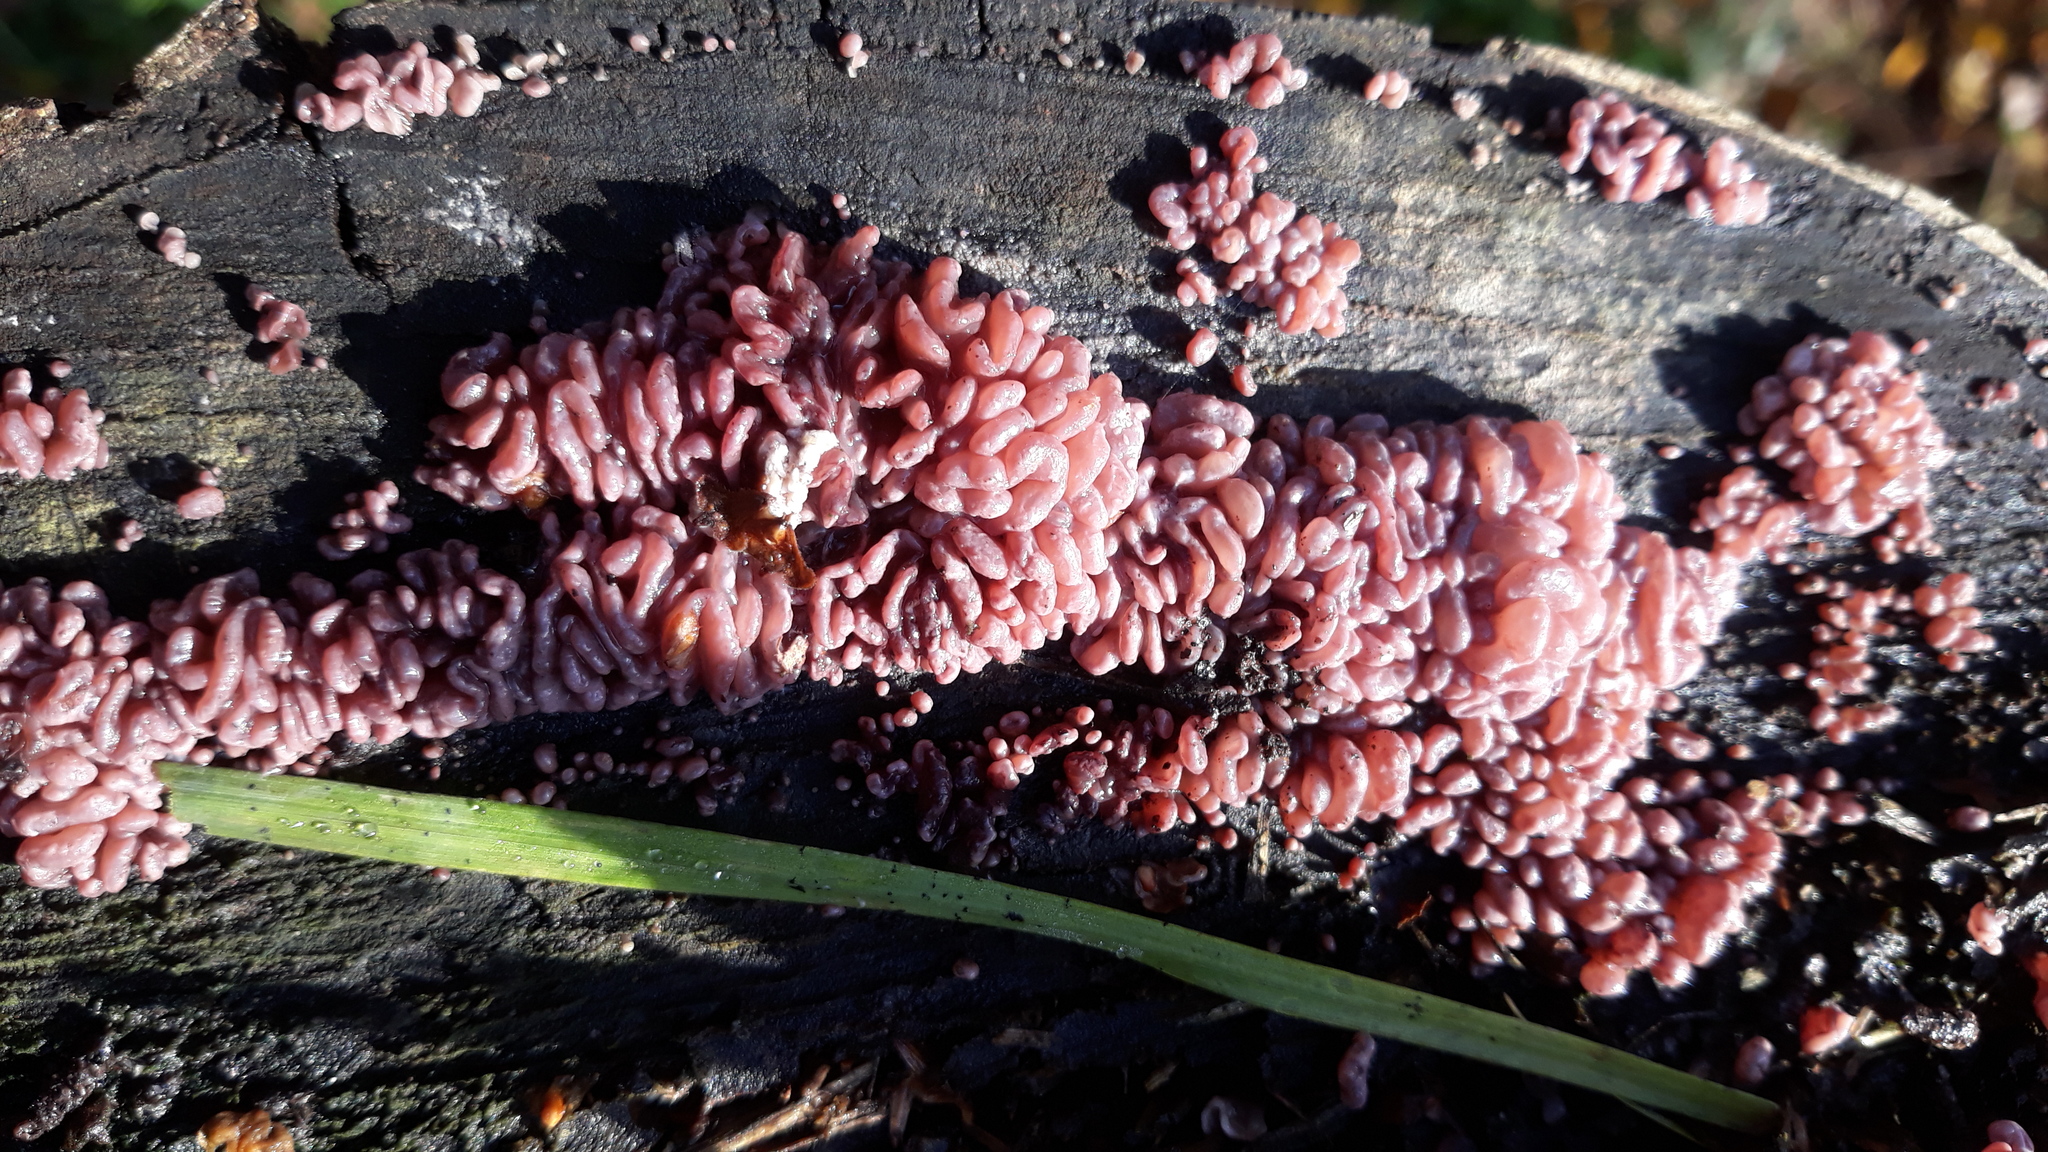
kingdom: Fungi
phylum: Ascomycota
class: Leotiomycetes
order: Helotiales
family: Gelatinodiscaceae
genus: Ascocoryne
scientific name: Ascocoryne sarcoides
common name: Purple jellydisc
